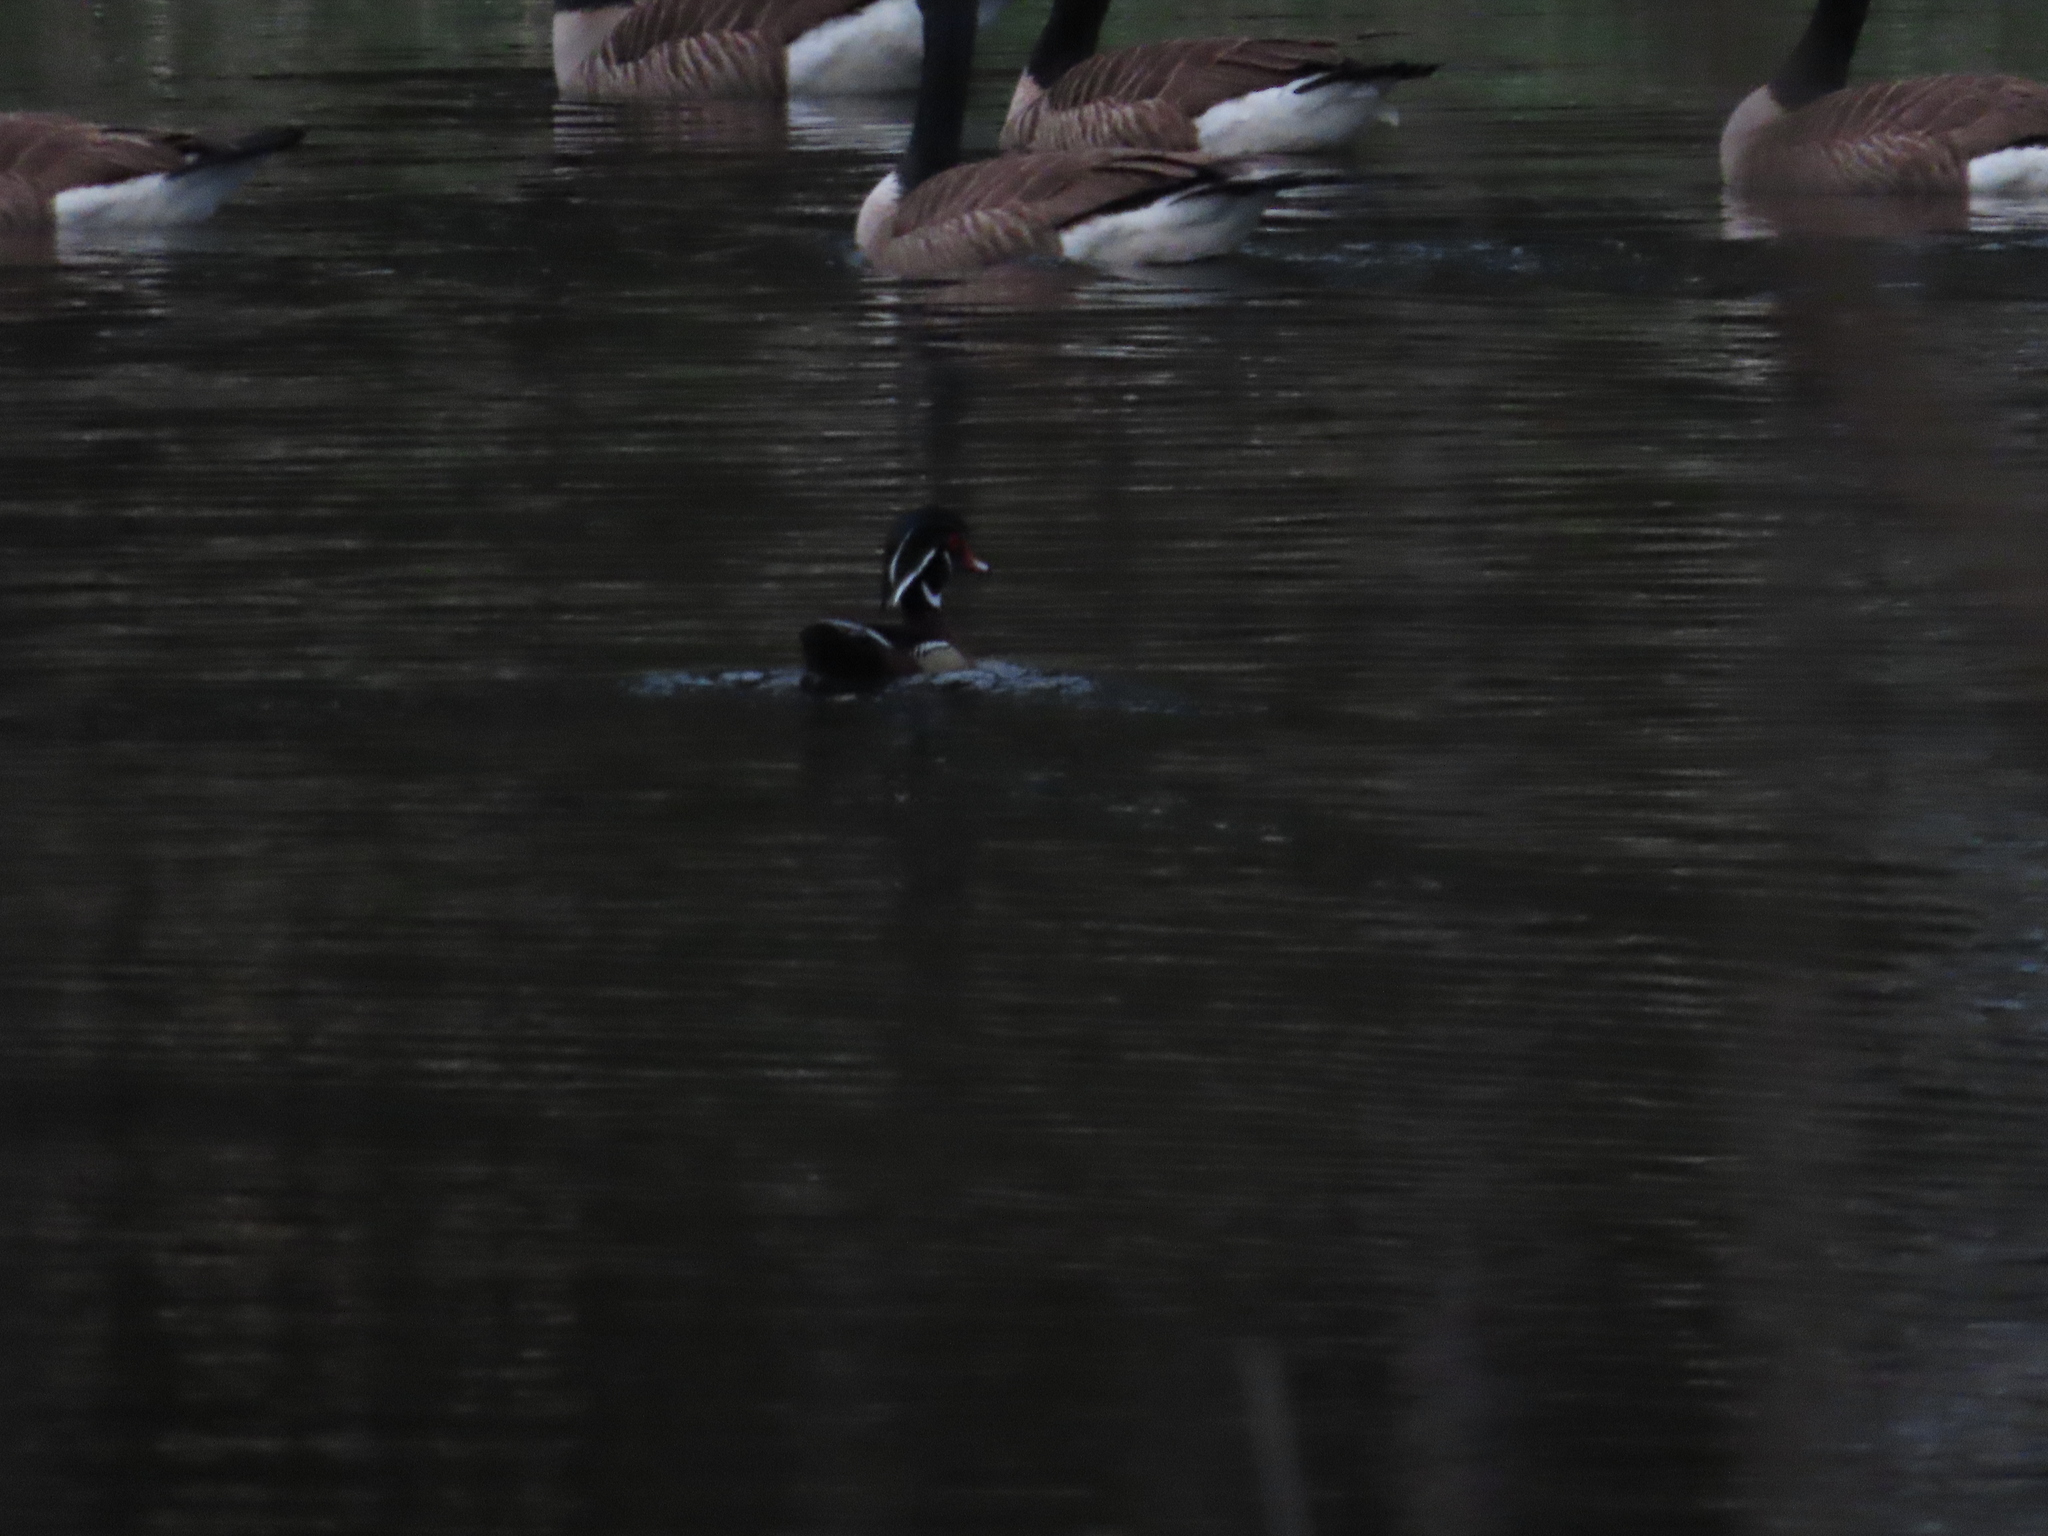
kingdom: Animalia
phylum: Chordata
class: Aves
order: Anseriformes
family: Anatidae
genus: Aix
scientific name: Aix sponsa
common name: Wood duck
